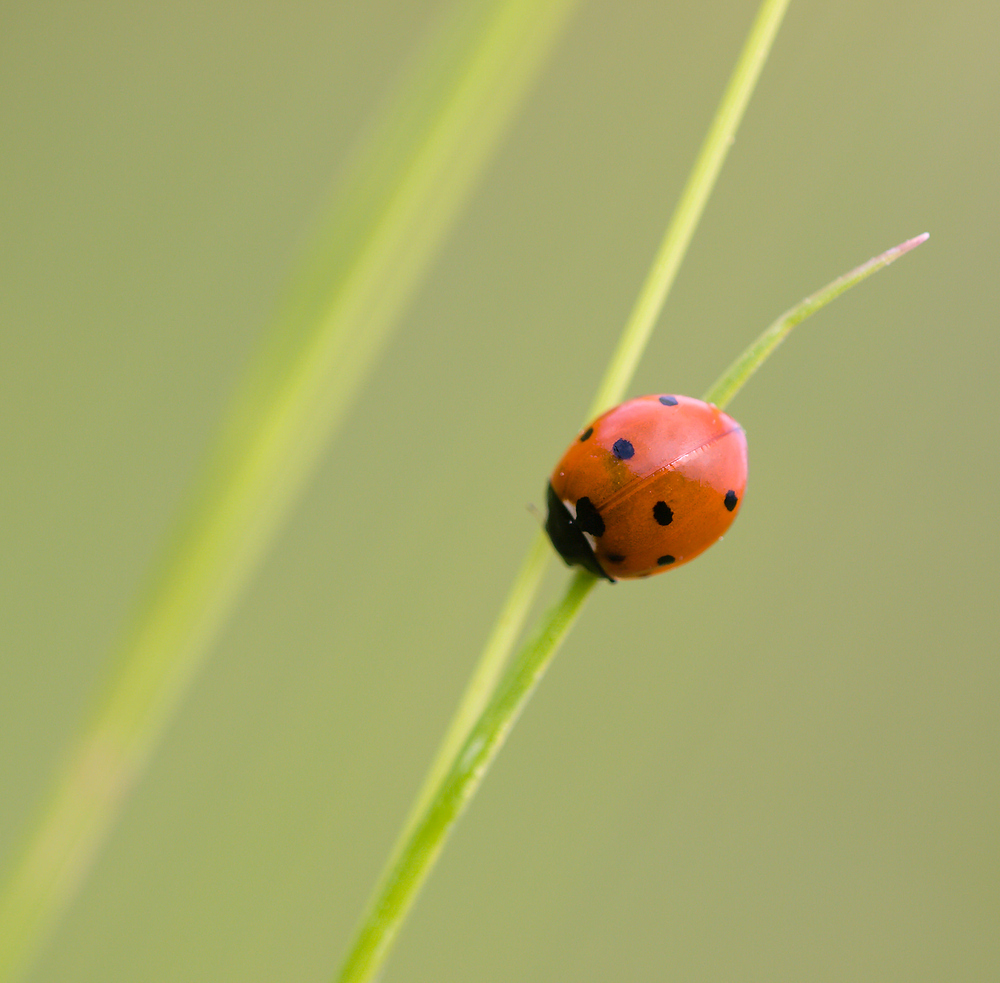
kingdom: Animalia
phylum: Arthropoda
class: Insecta
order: Coleoptera
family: Coccinellidae
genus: Coccinella
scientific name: Coccinella septempunctata
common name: Sevenspotted lady beetle
